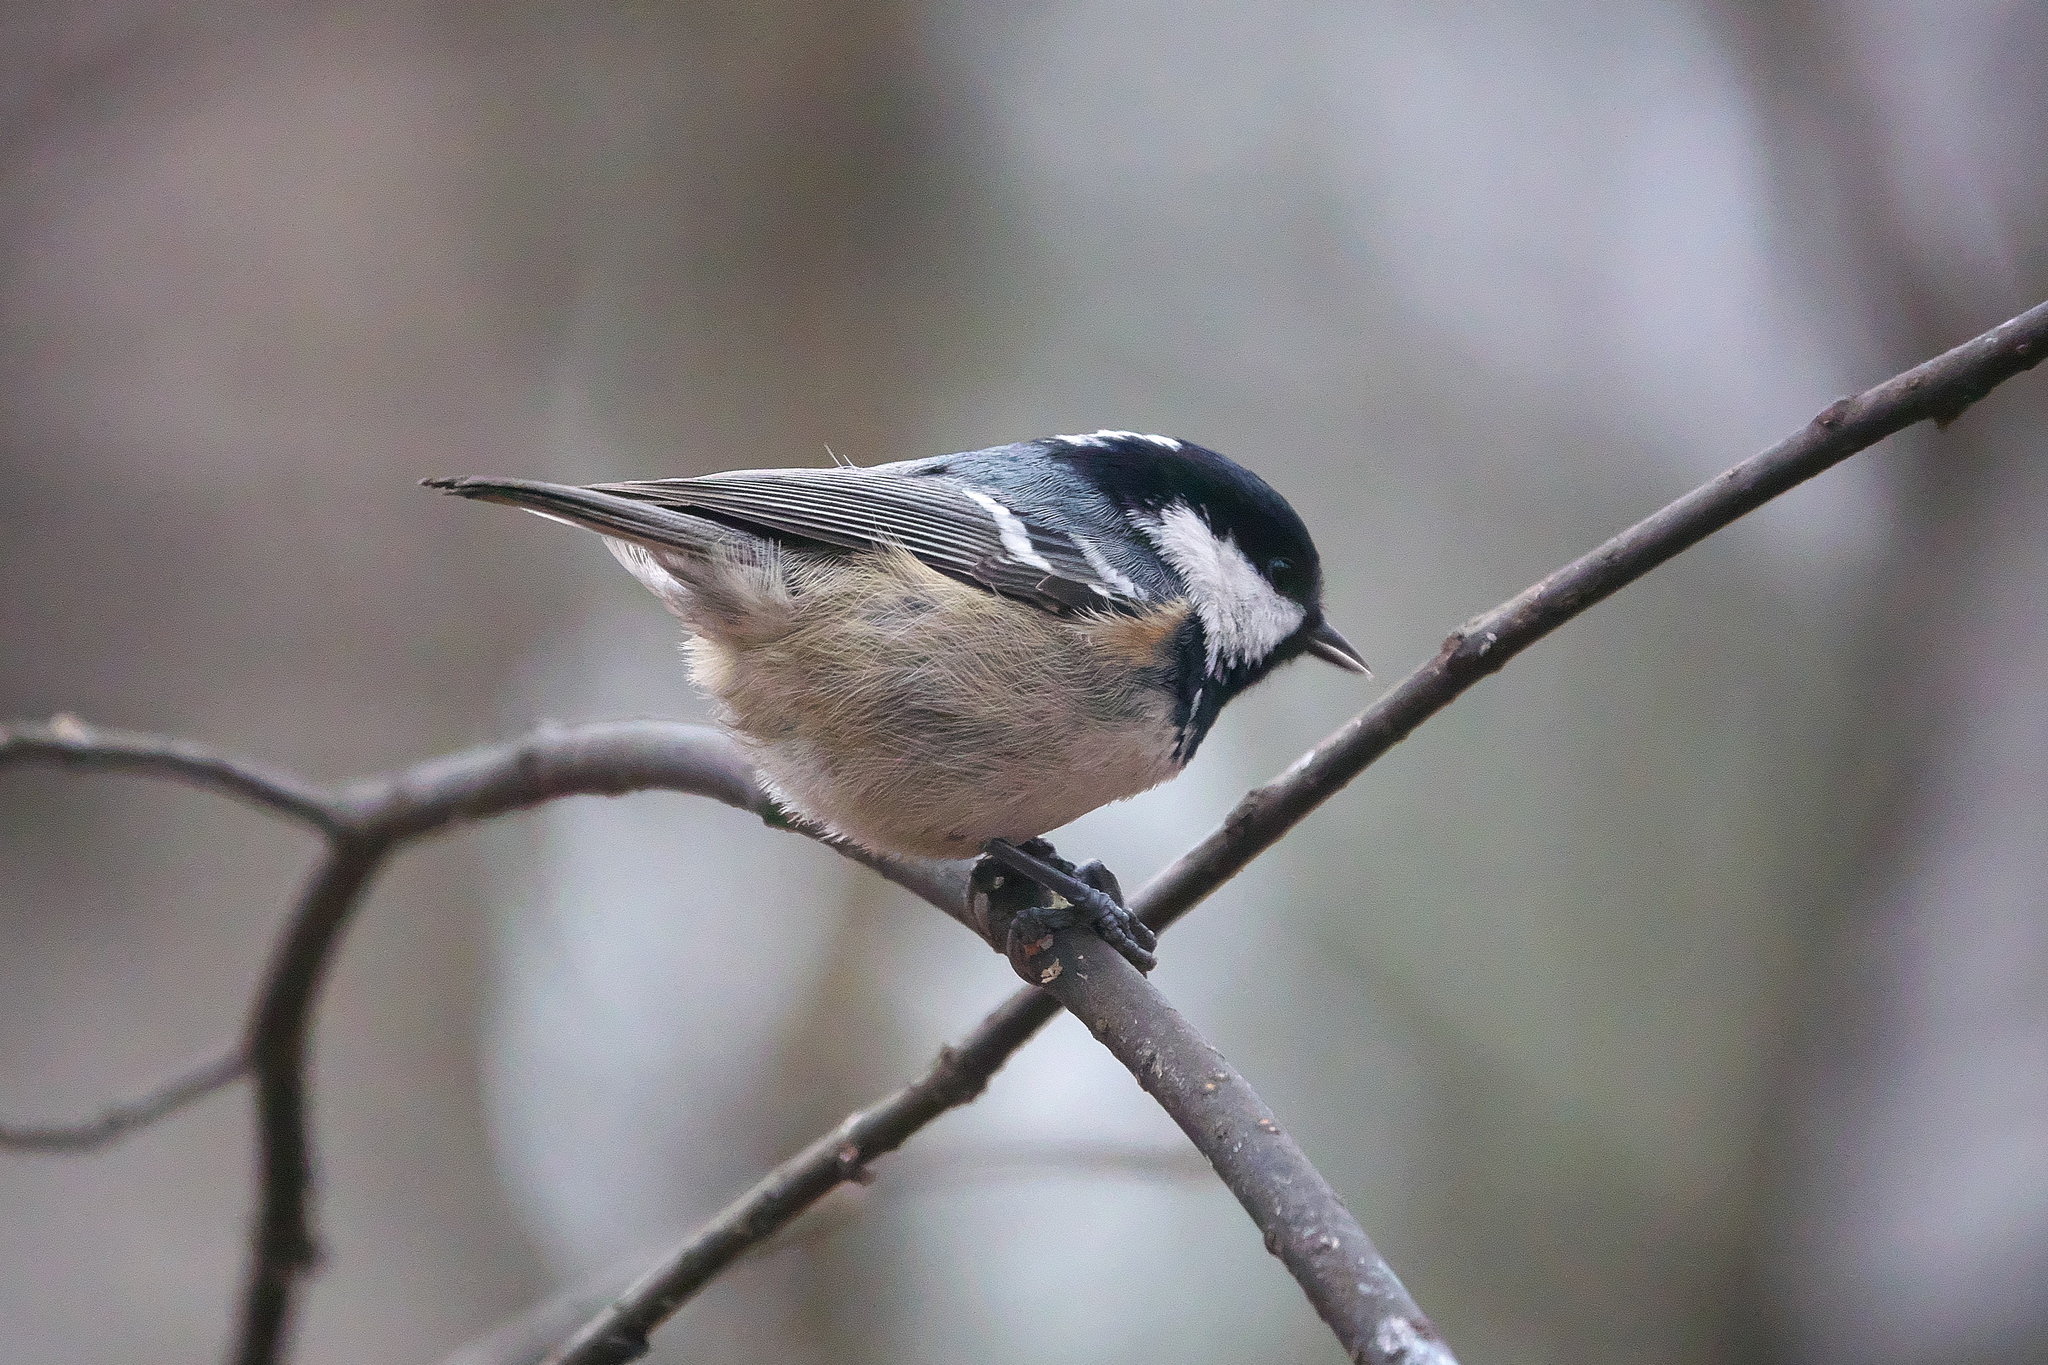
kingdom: Animalia
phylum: Chordata
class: Aves
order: Passeriformes
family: Paridae
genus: Periparus
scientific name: Periparus ater
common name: Coal tit
